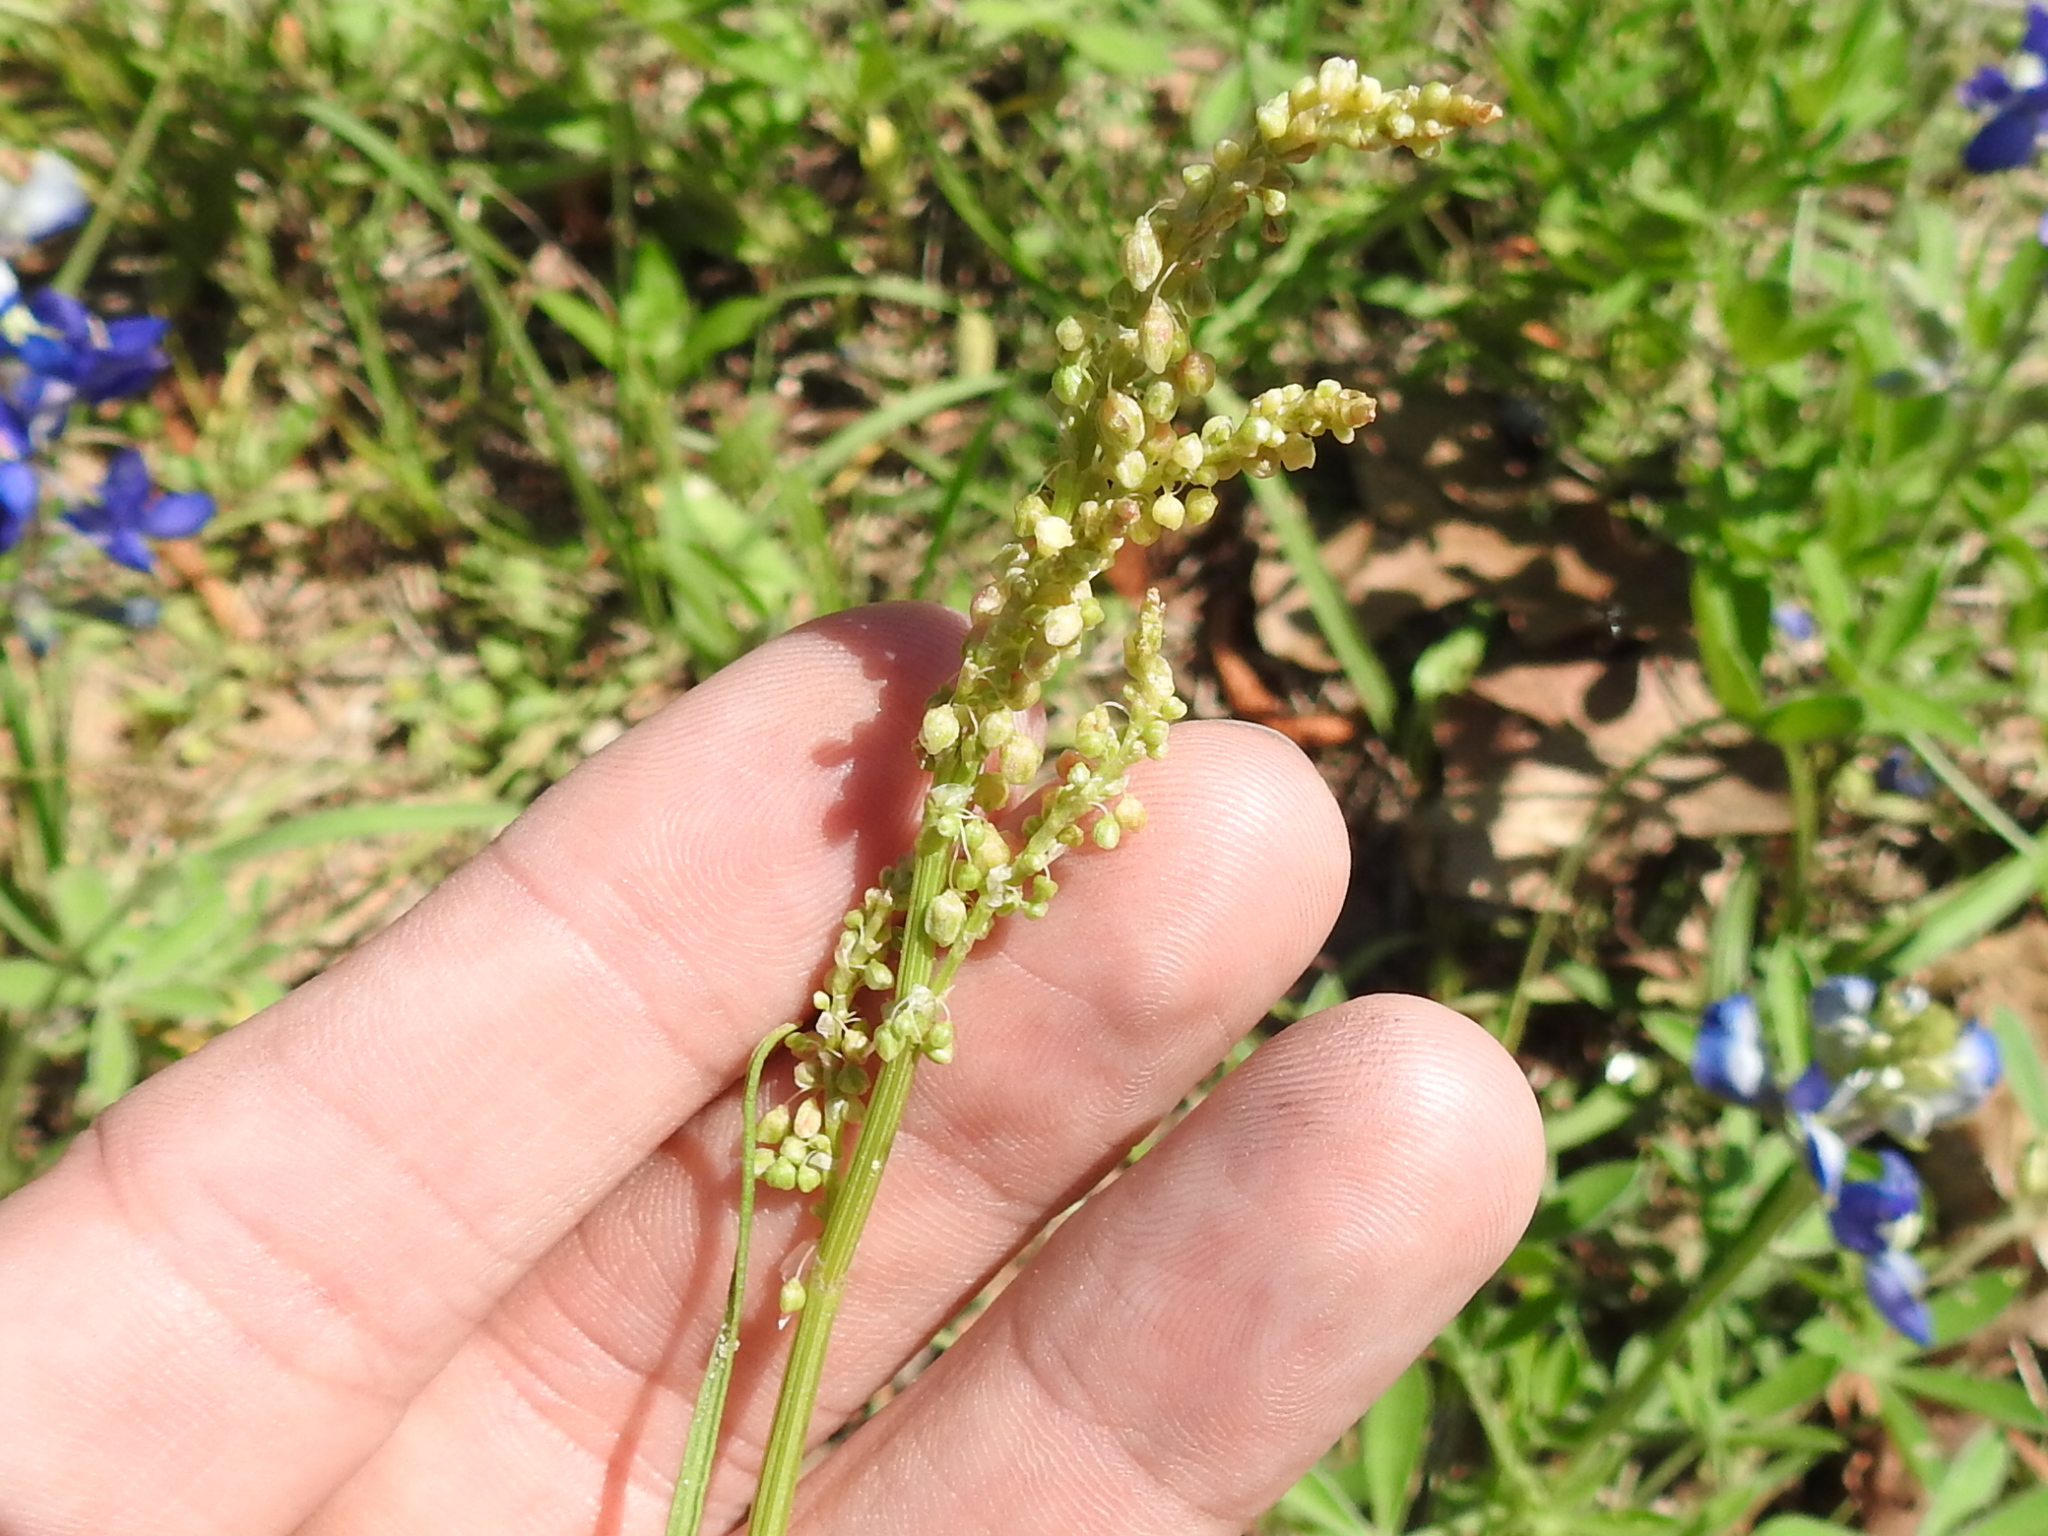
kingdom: Plantae
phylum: Tracheophyta
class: Magnoliopsida
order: Caryophyllales
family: Polygonaceae
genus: Rumex
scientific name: Rumex hastatulus
